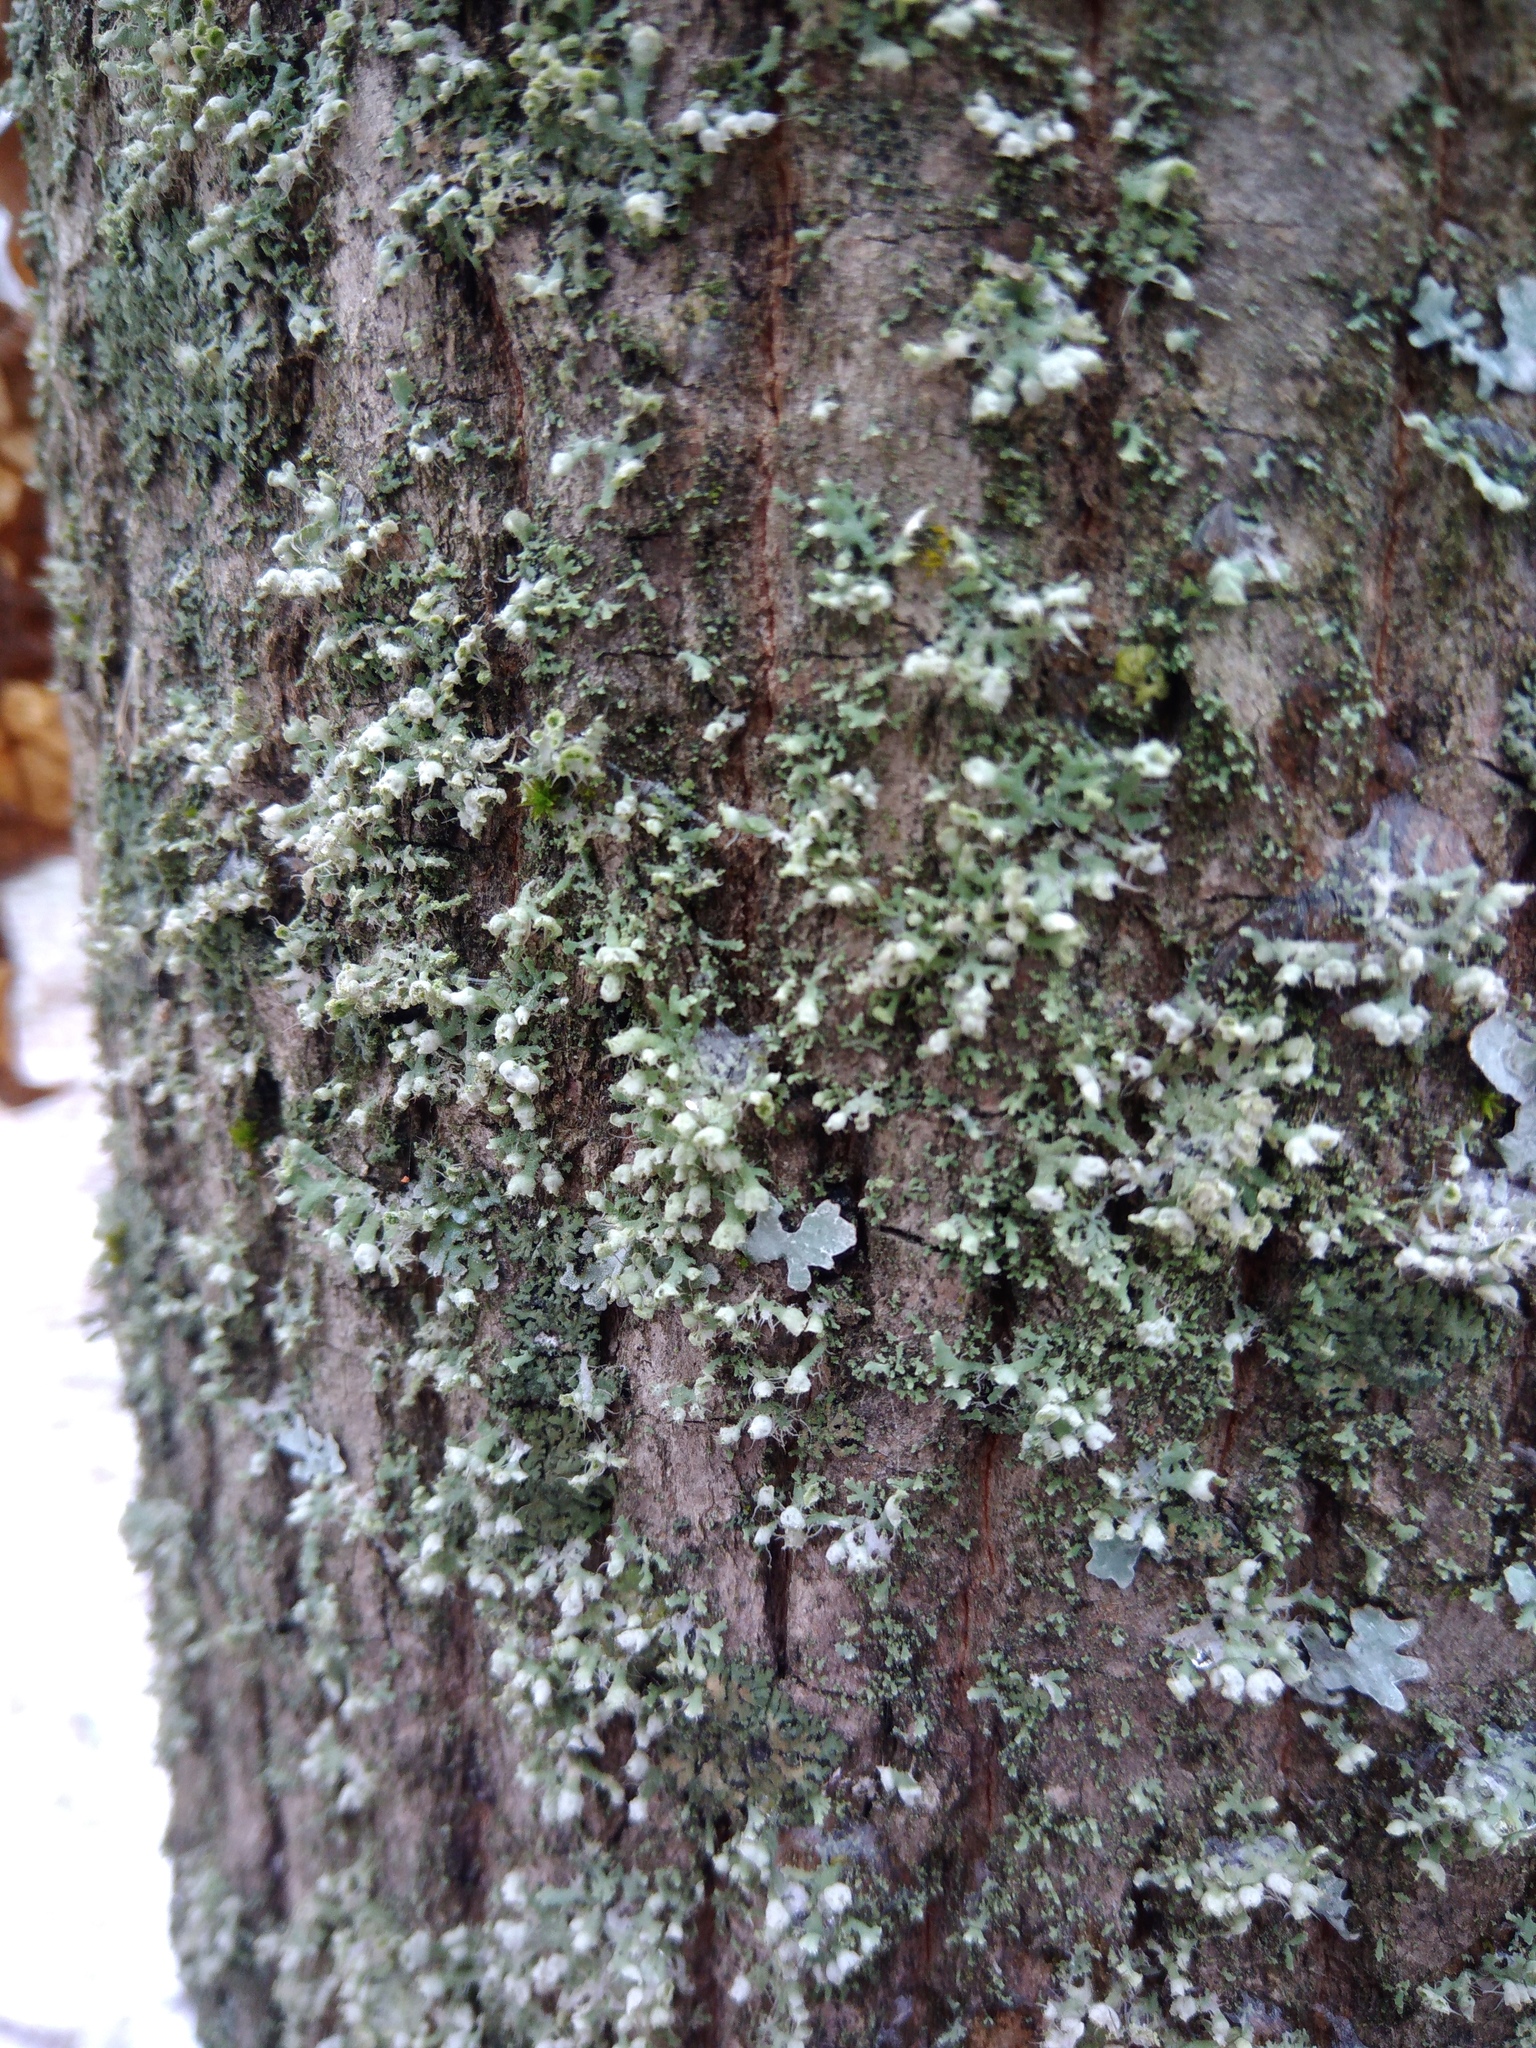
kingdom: Fungi
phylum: Ascomycota
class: Lecanoromycetes
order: Caliciales
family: Physciaceae
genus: Physcia
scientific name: Physcia adscendens
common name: Hooded rosette lichen
